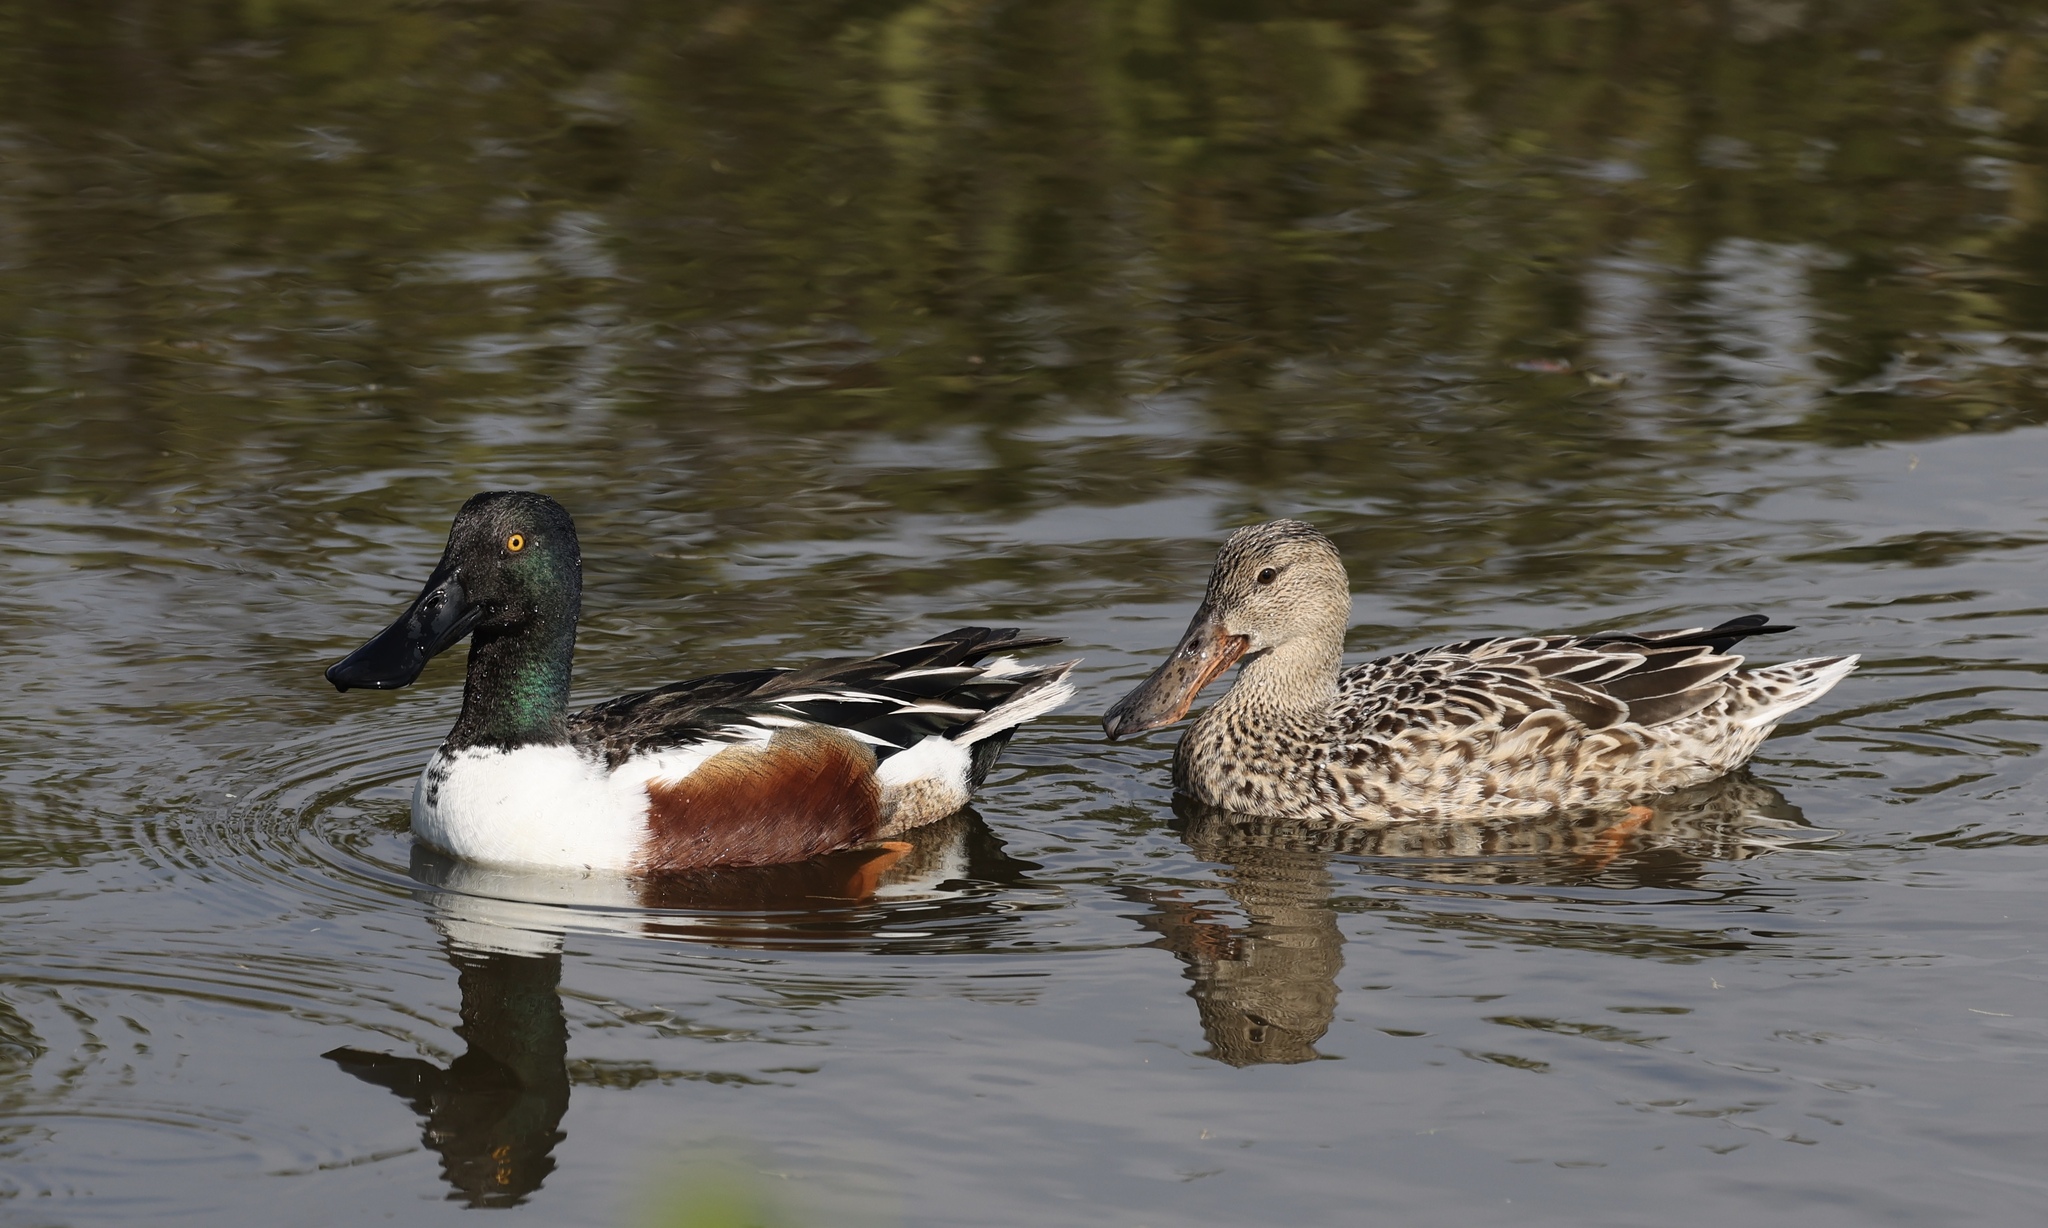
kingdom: Animalia
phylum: Chordata
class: Aves
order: Anseriformes
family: Anatidae
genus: Spatula
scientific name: Spatula clypeata
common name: Northern shoveler
